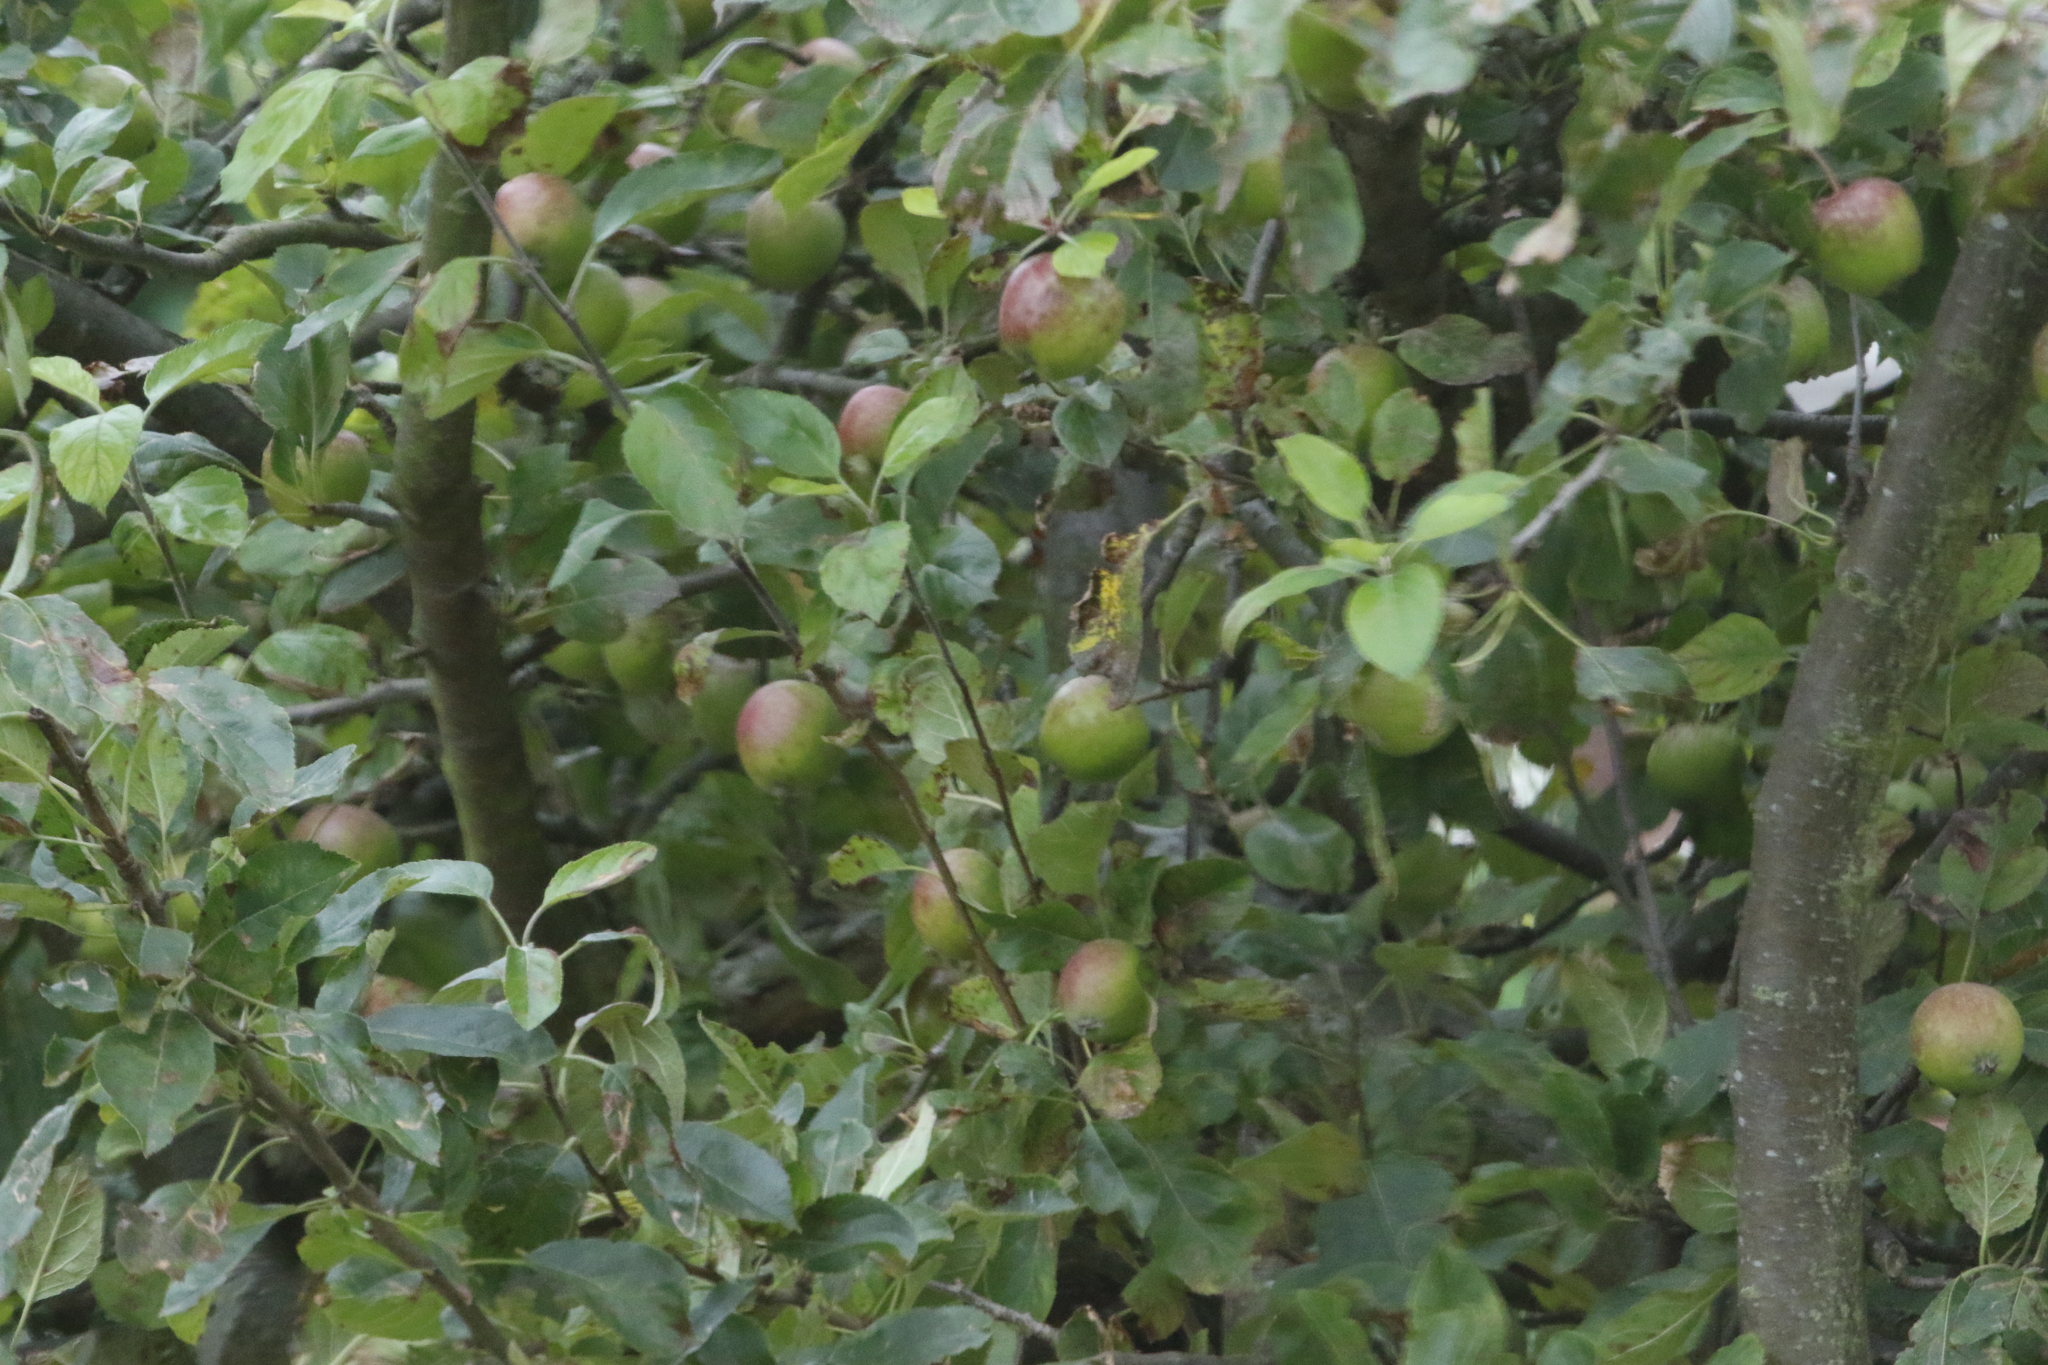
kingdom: Plantae
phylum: Tracheophyta
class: Magnoliopsida
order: Rosales
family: Rosaceae
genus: Malus
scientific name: Malus domestica
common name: Apple
